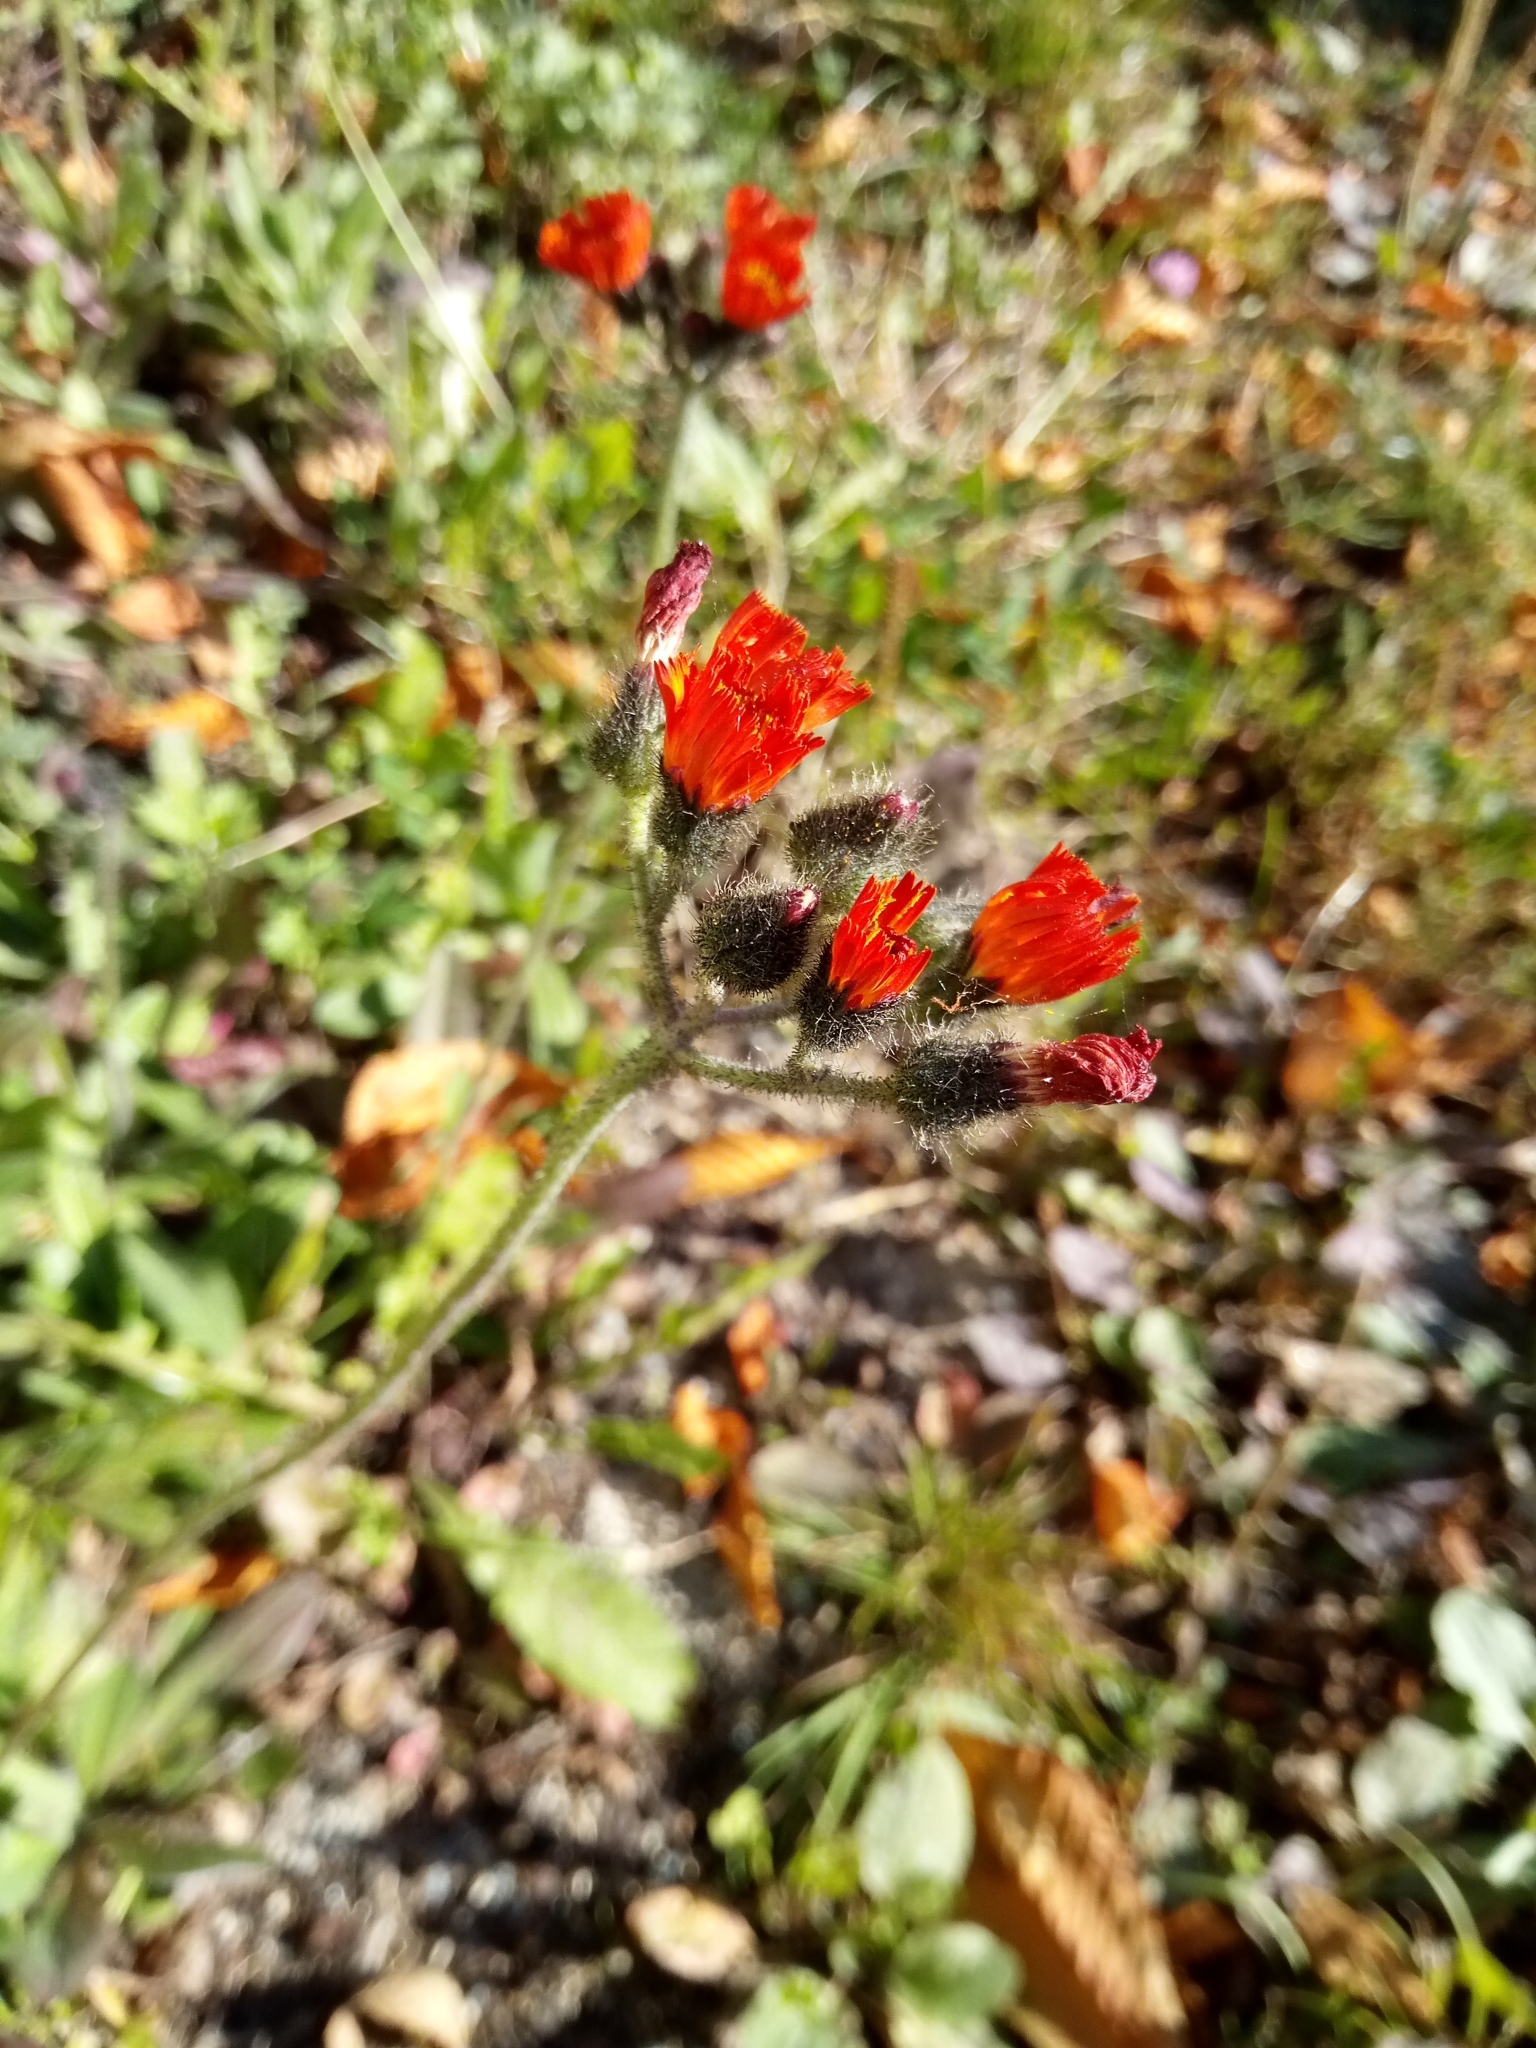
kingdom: Plantae
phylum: Tracheophyta
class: Magnoliopsida
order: Asterales
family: Asteraceae
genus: Pilosella
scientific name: Pilosella aurantiaca
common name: Fox-and-cubs
